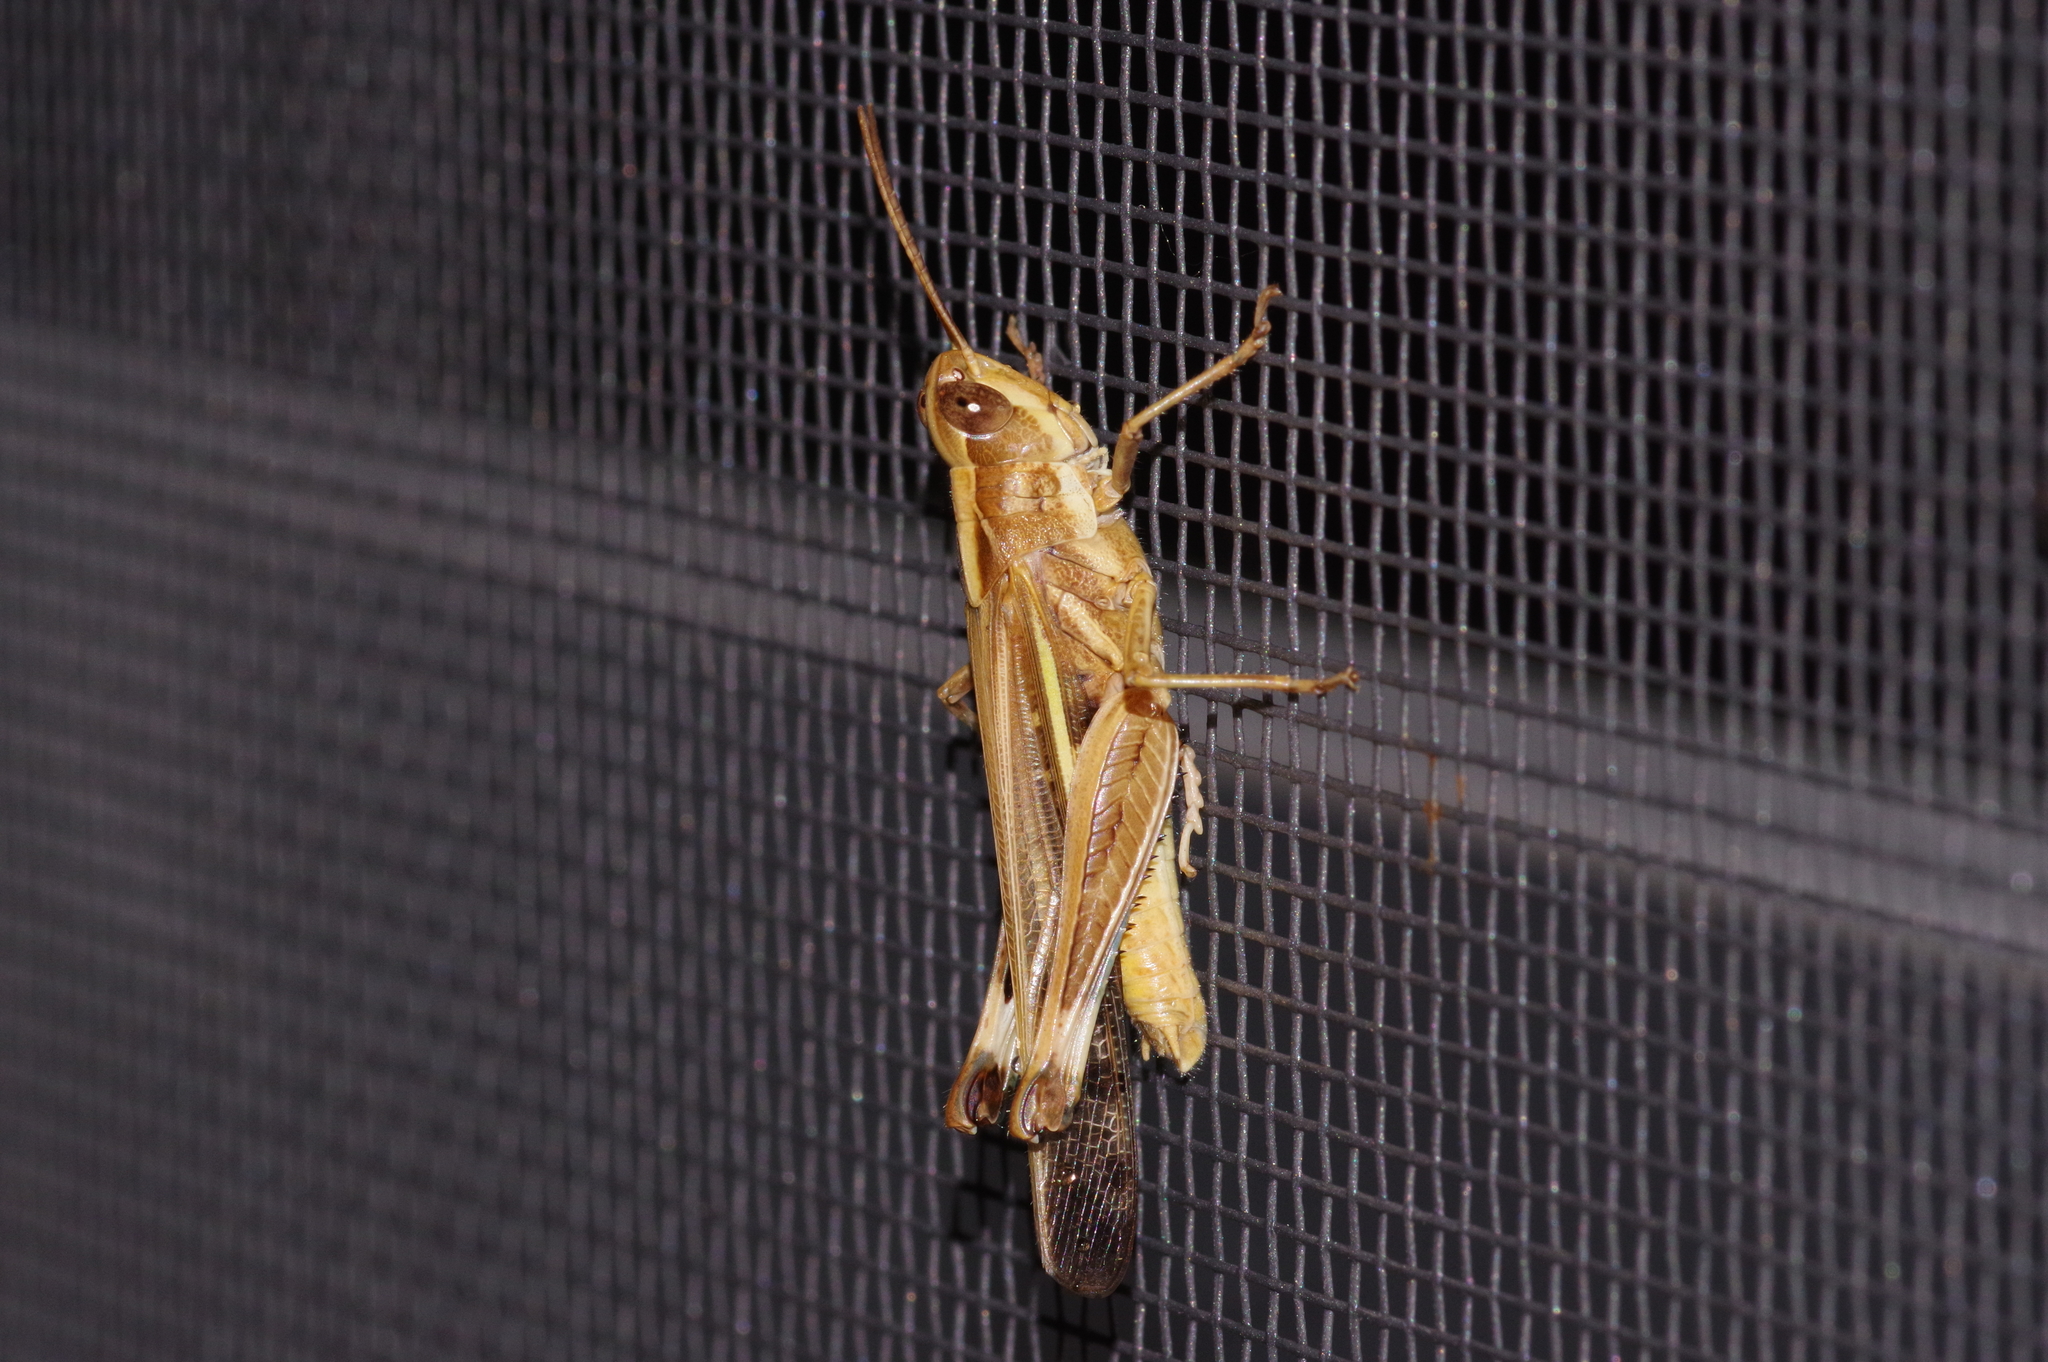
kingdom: Animalia
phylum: Arthropoda
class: Insecta
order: Orthoptera
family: Acrididae
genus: Aiolopus
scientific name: Aiolopus thalassinus
